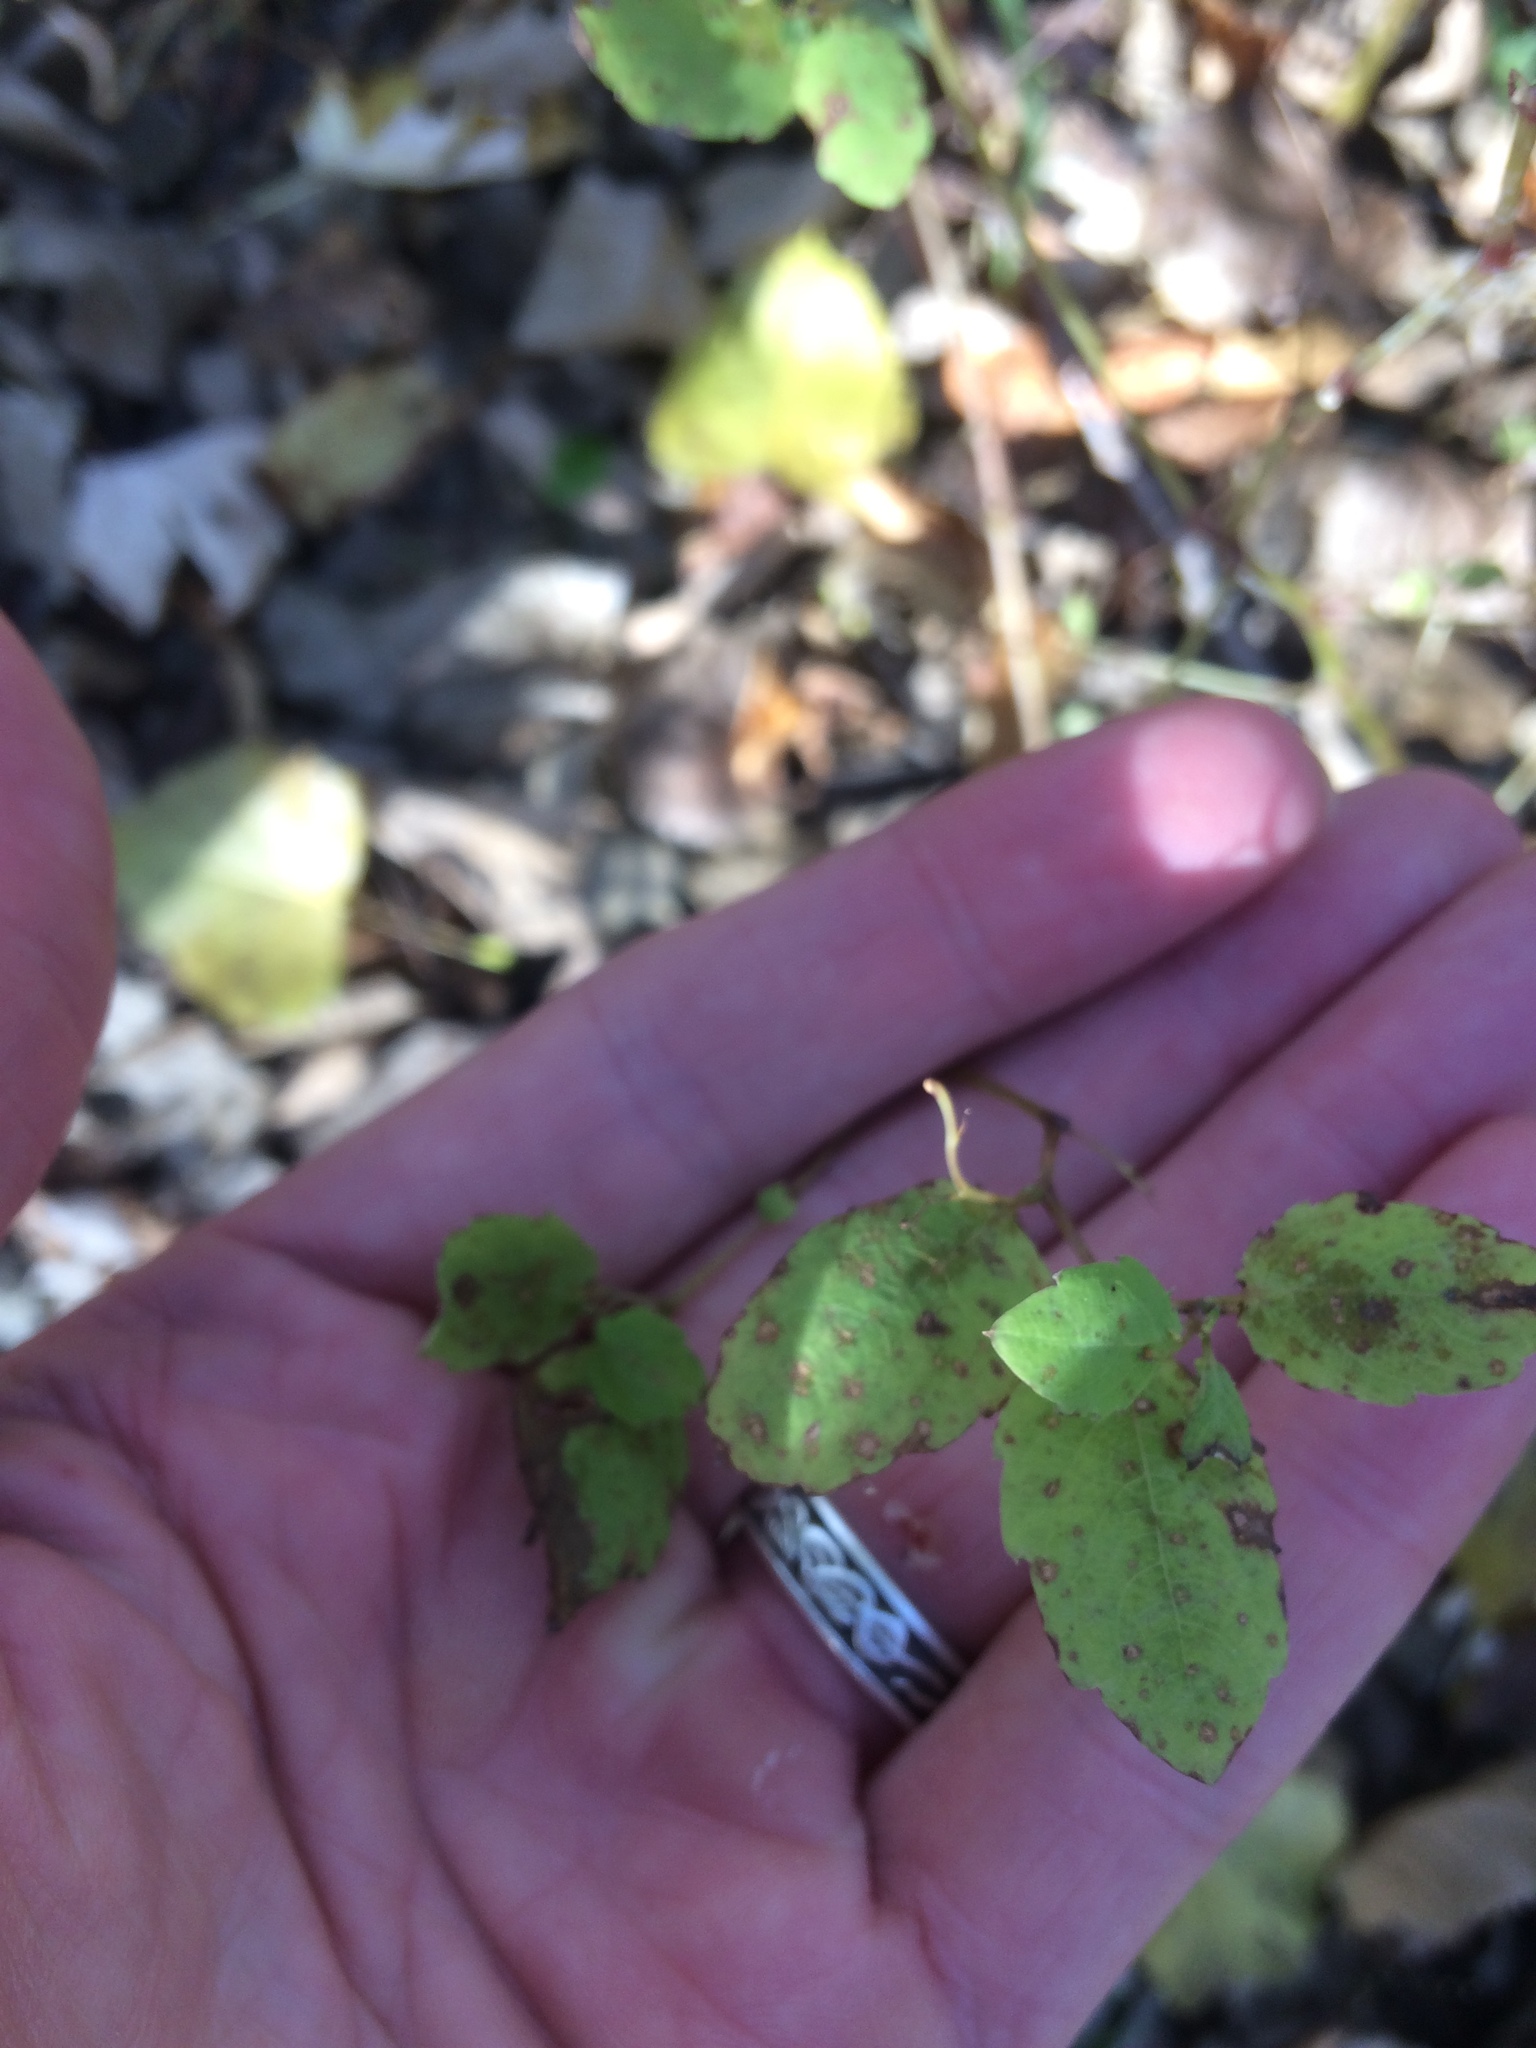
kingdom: Plantae
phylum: Tracheophyta
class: Magnoliopsida
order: Ericales
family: Balsaminaceae
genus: Impatiens
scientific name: Impatiens capensis
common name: Orange balsam
